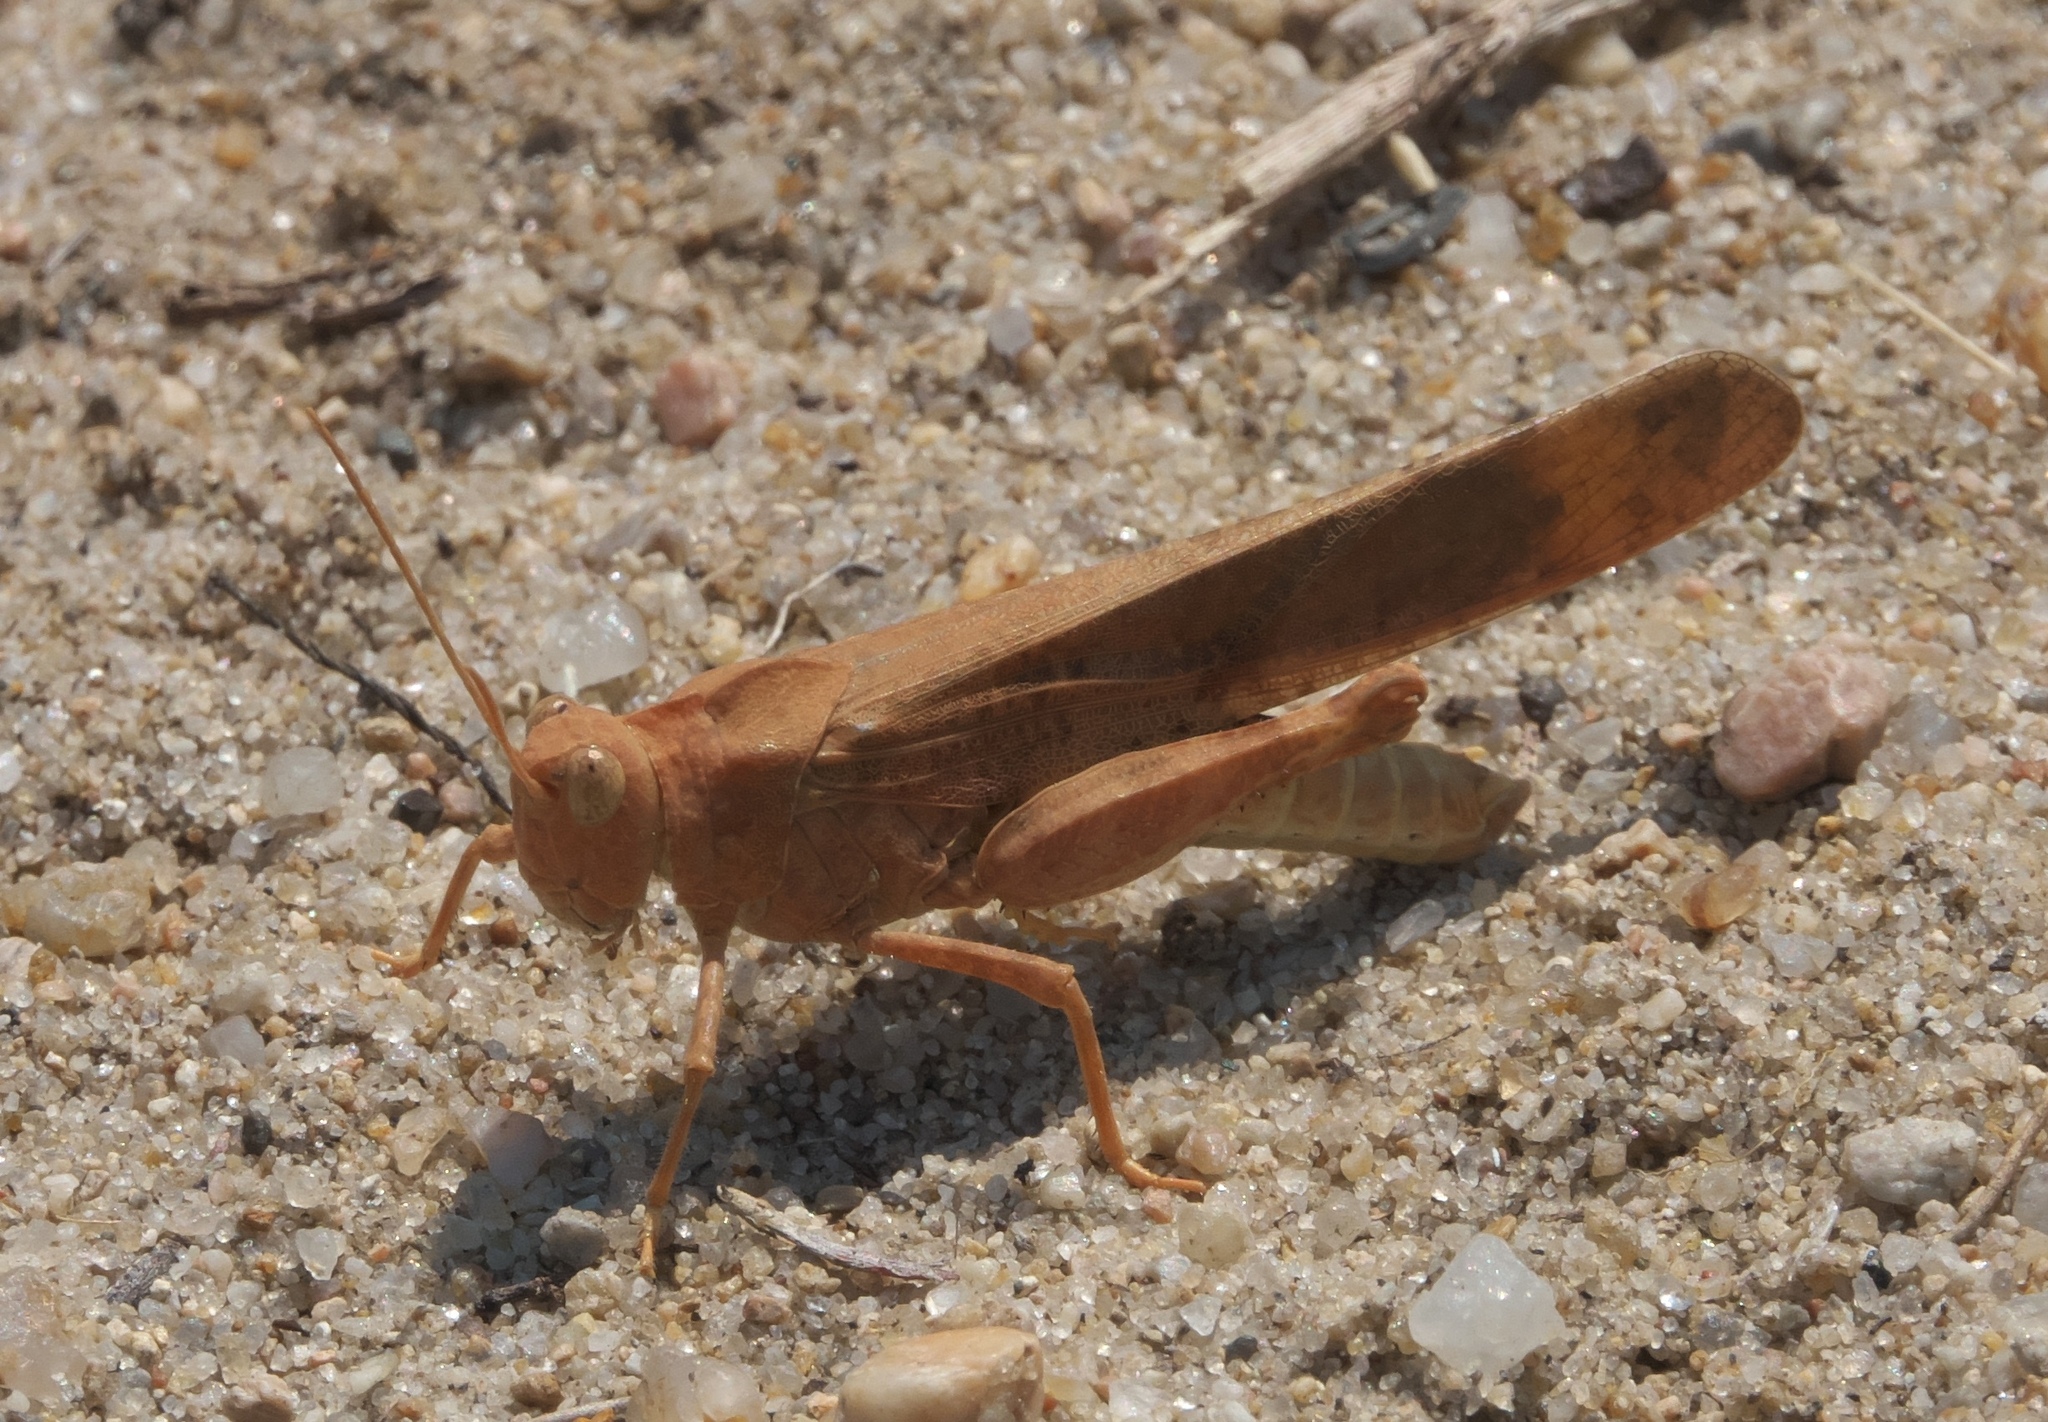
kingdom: Animalia
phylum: Arthropoda
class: Insecta
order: Orthoptera
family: Acrididae
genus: Dissosteira
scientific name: Dissosteira carolina
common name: Carolina grasshopper
